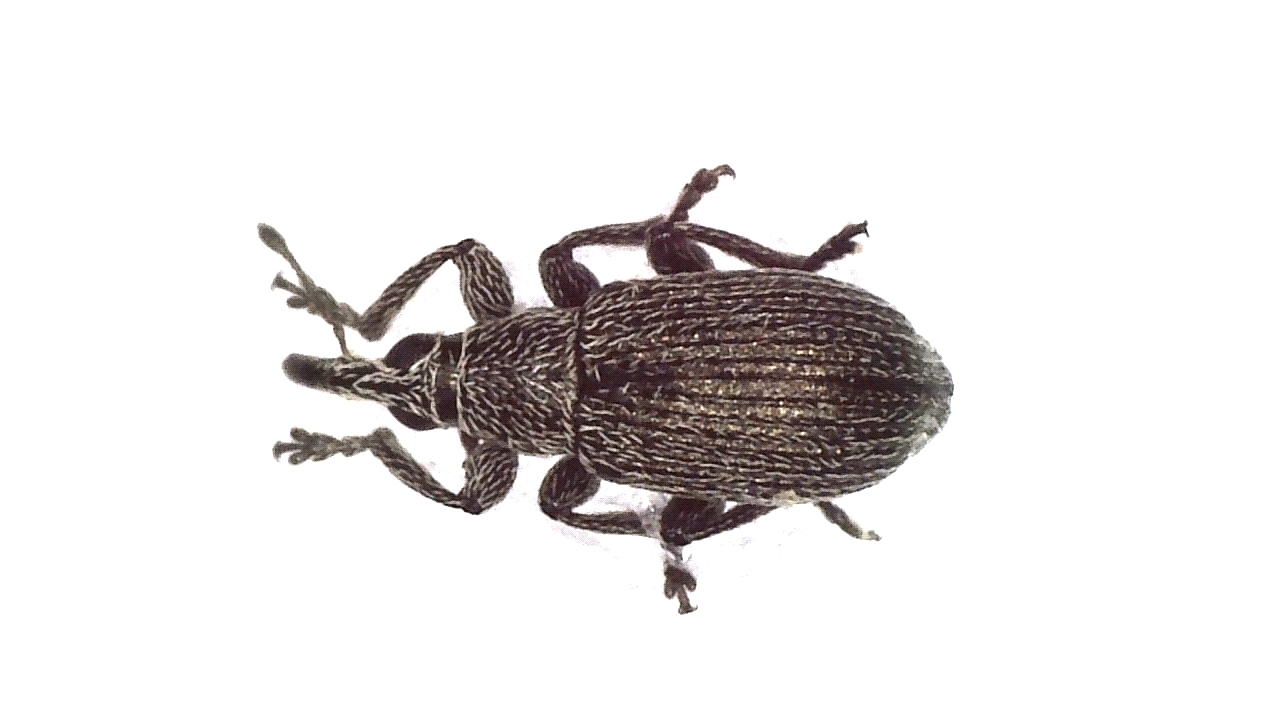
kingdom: Animalia
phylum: Arthropoda
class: Insecta
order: Coleoptera
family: Brentidae
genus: Betulapion
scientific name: Betulapion simile
